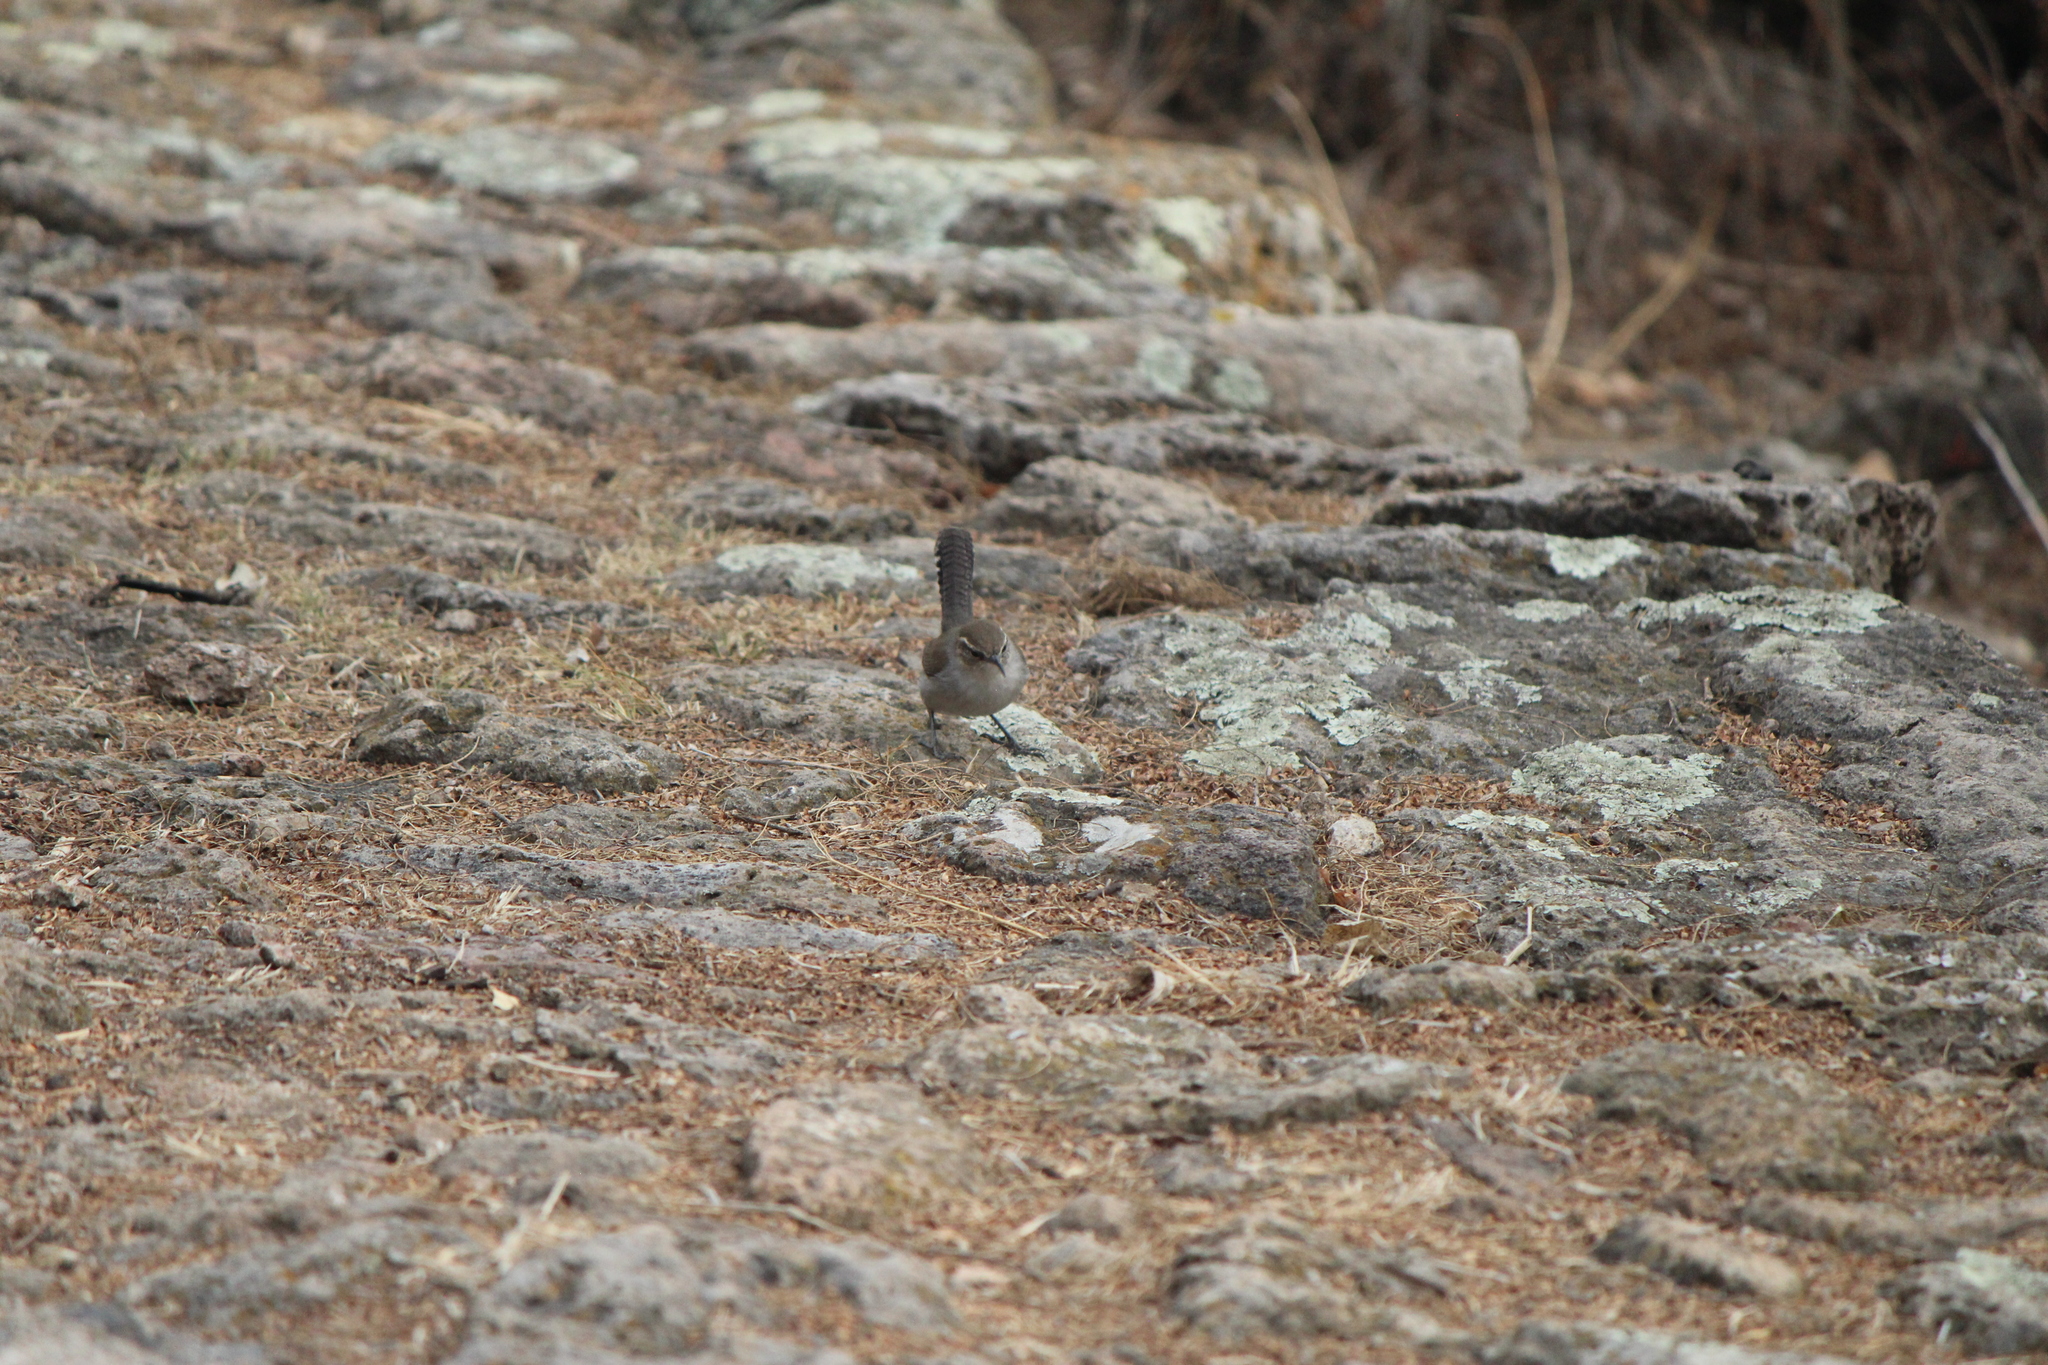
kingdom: Animalia
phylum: Chordata
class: Aves
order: Passeriformes
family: Troglodytidae
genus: Thryomanes
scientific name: Thryomanes bewickii
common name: Bewick's wren
